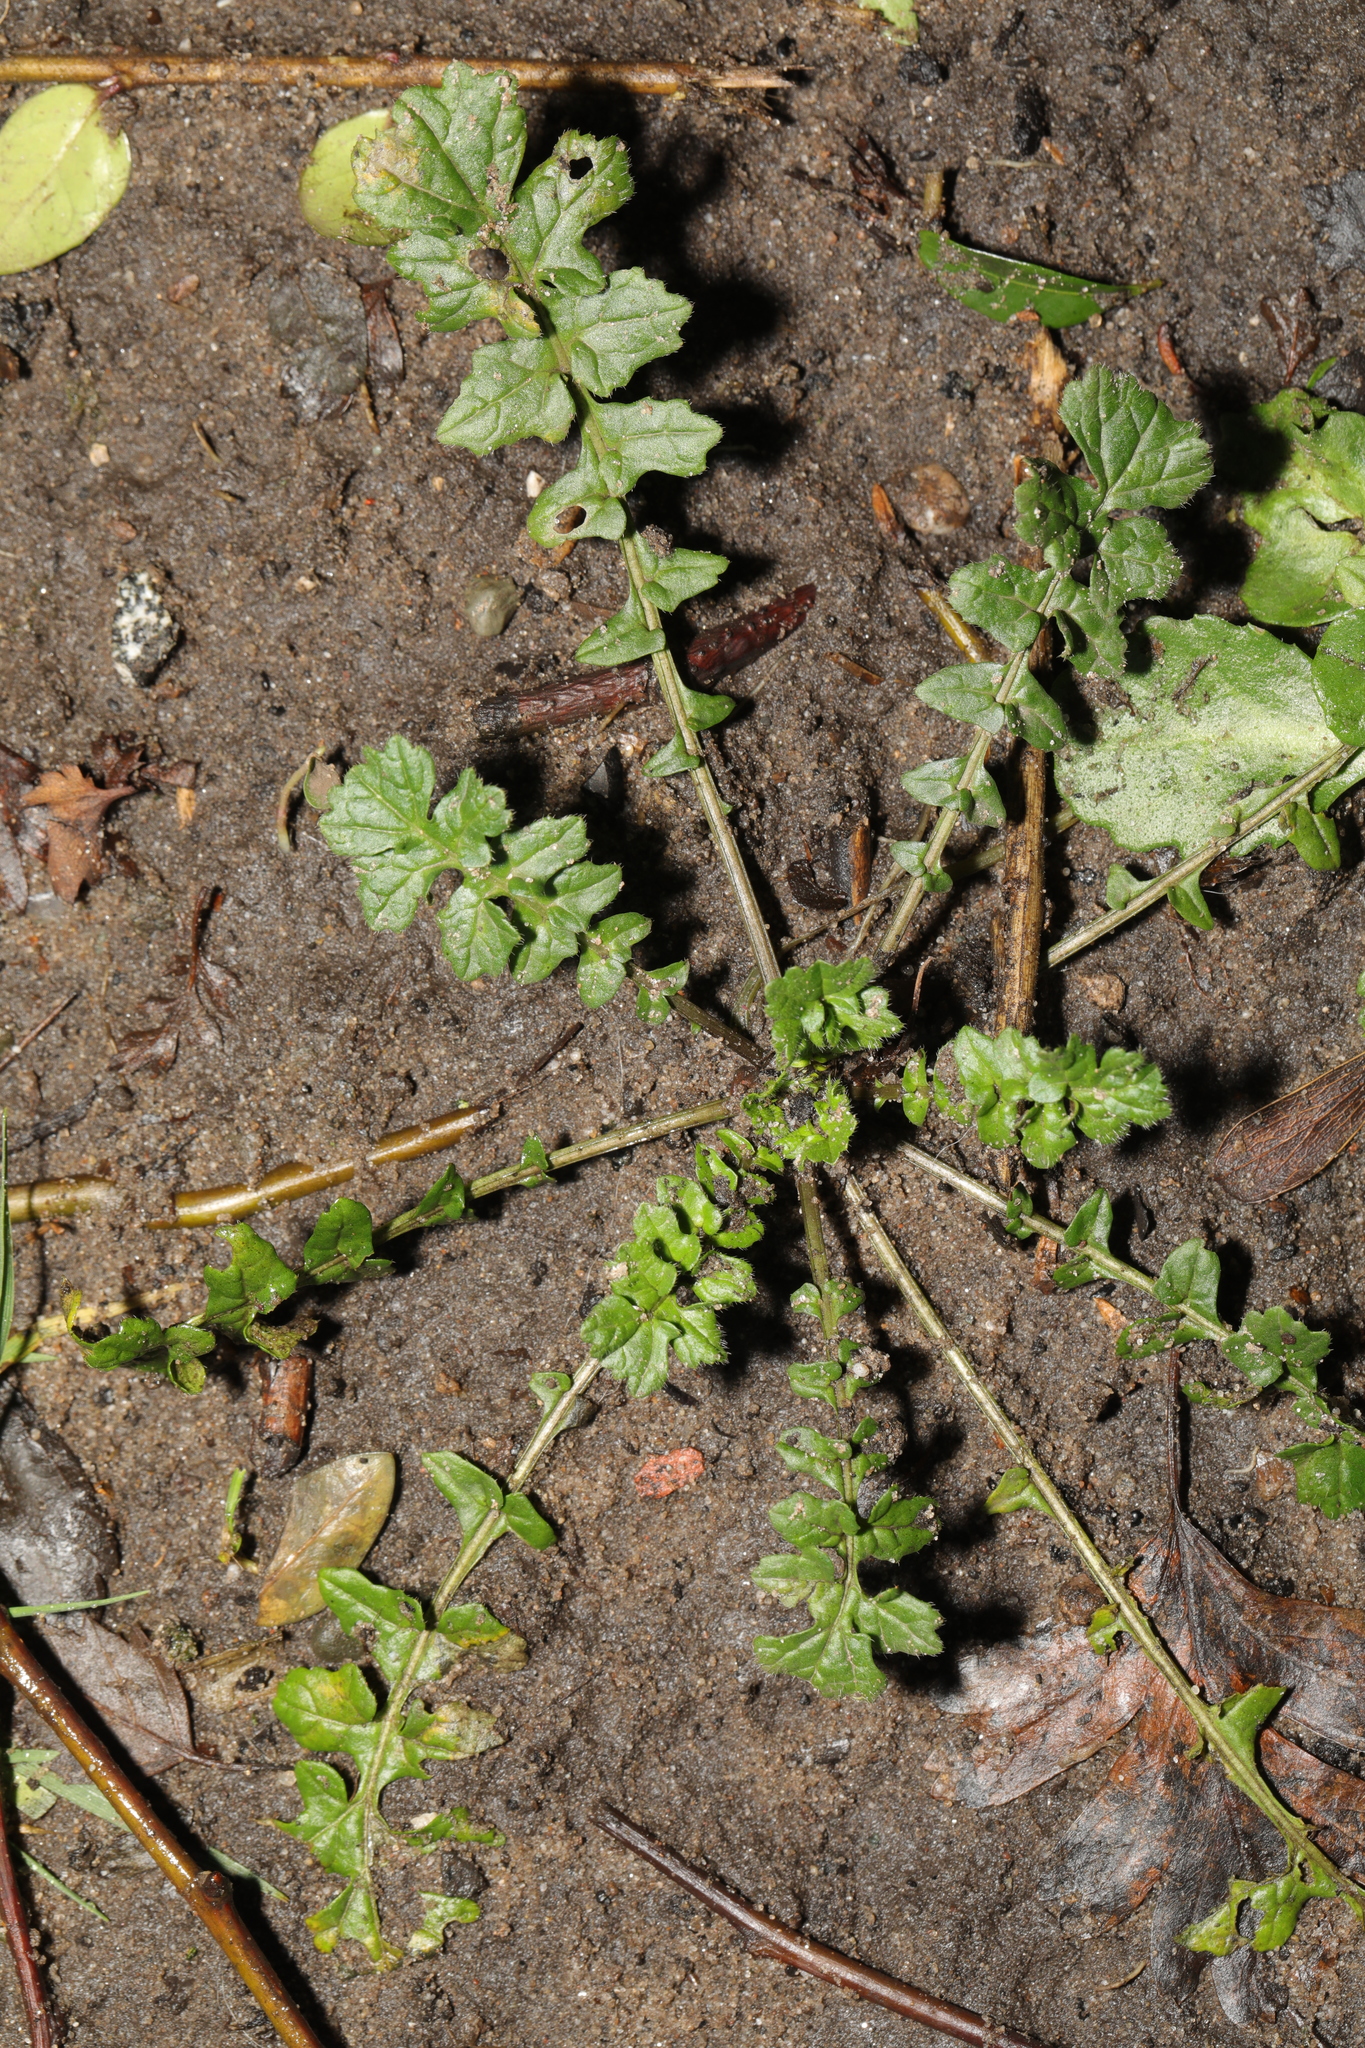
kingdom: Plantae
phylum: Tracheophyta
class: Magnoliopsida
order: Brassicales
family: Brassicaceae
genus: Sisymbrium
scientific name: Sisymbrium officinale
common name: Hedge mustard
